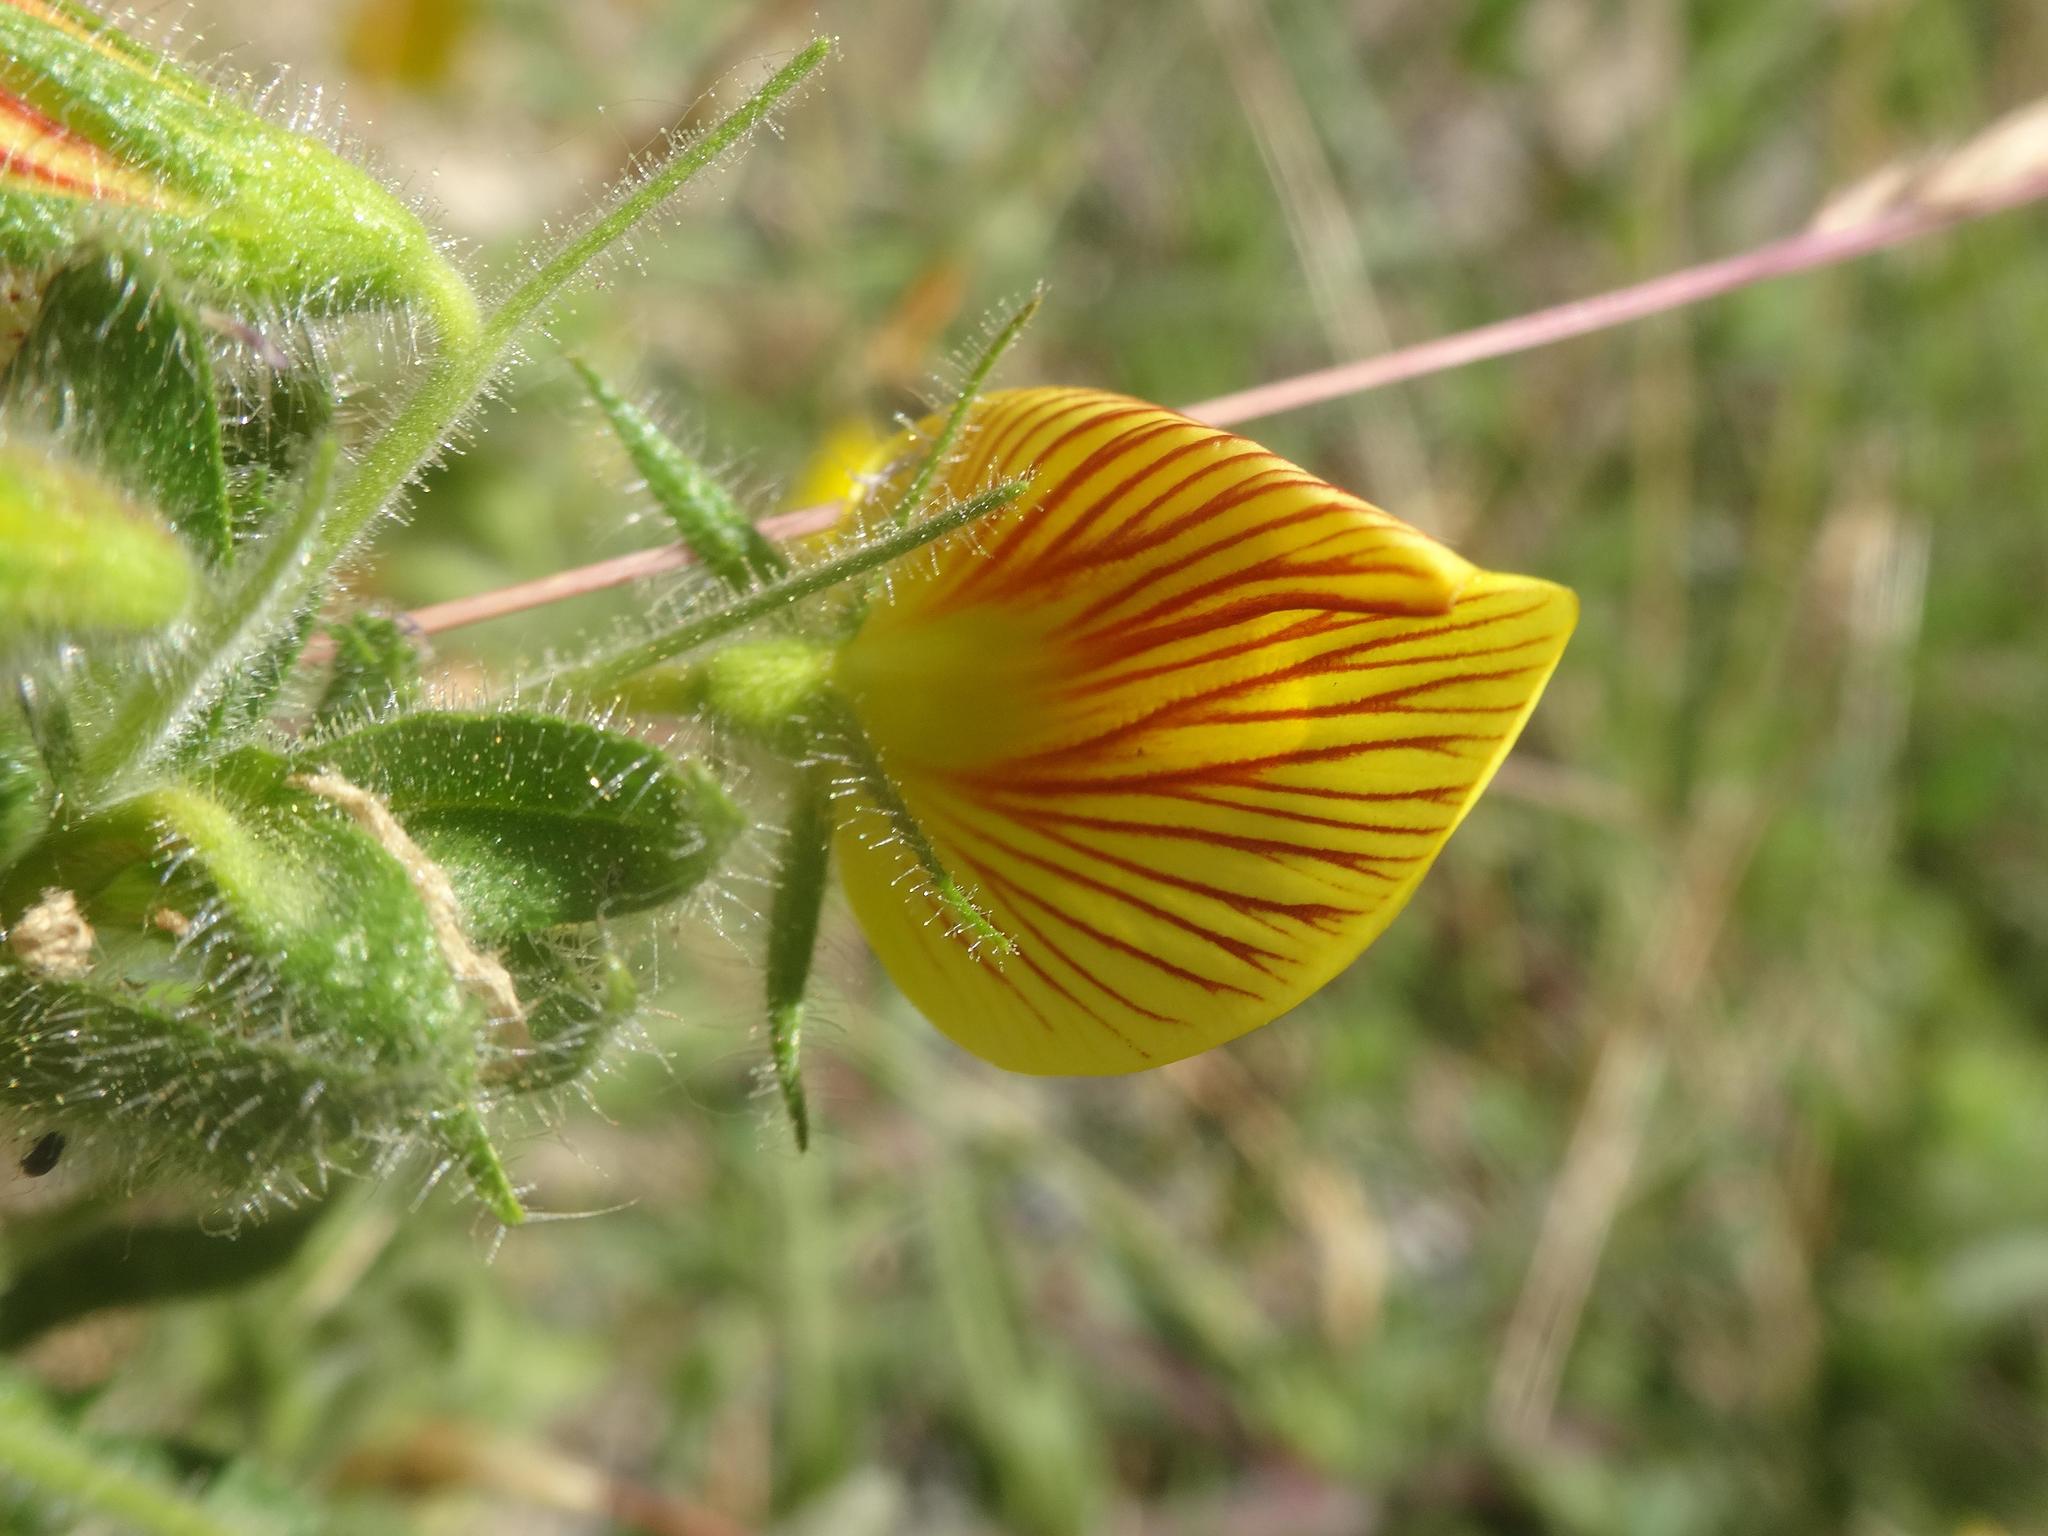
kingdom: Plantae
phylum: Tracheophyta
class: Magnoliopsida
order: Fabales
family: Fabaceae
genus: Ononis
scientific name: Ononis natrix
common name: Yellow restharrow
